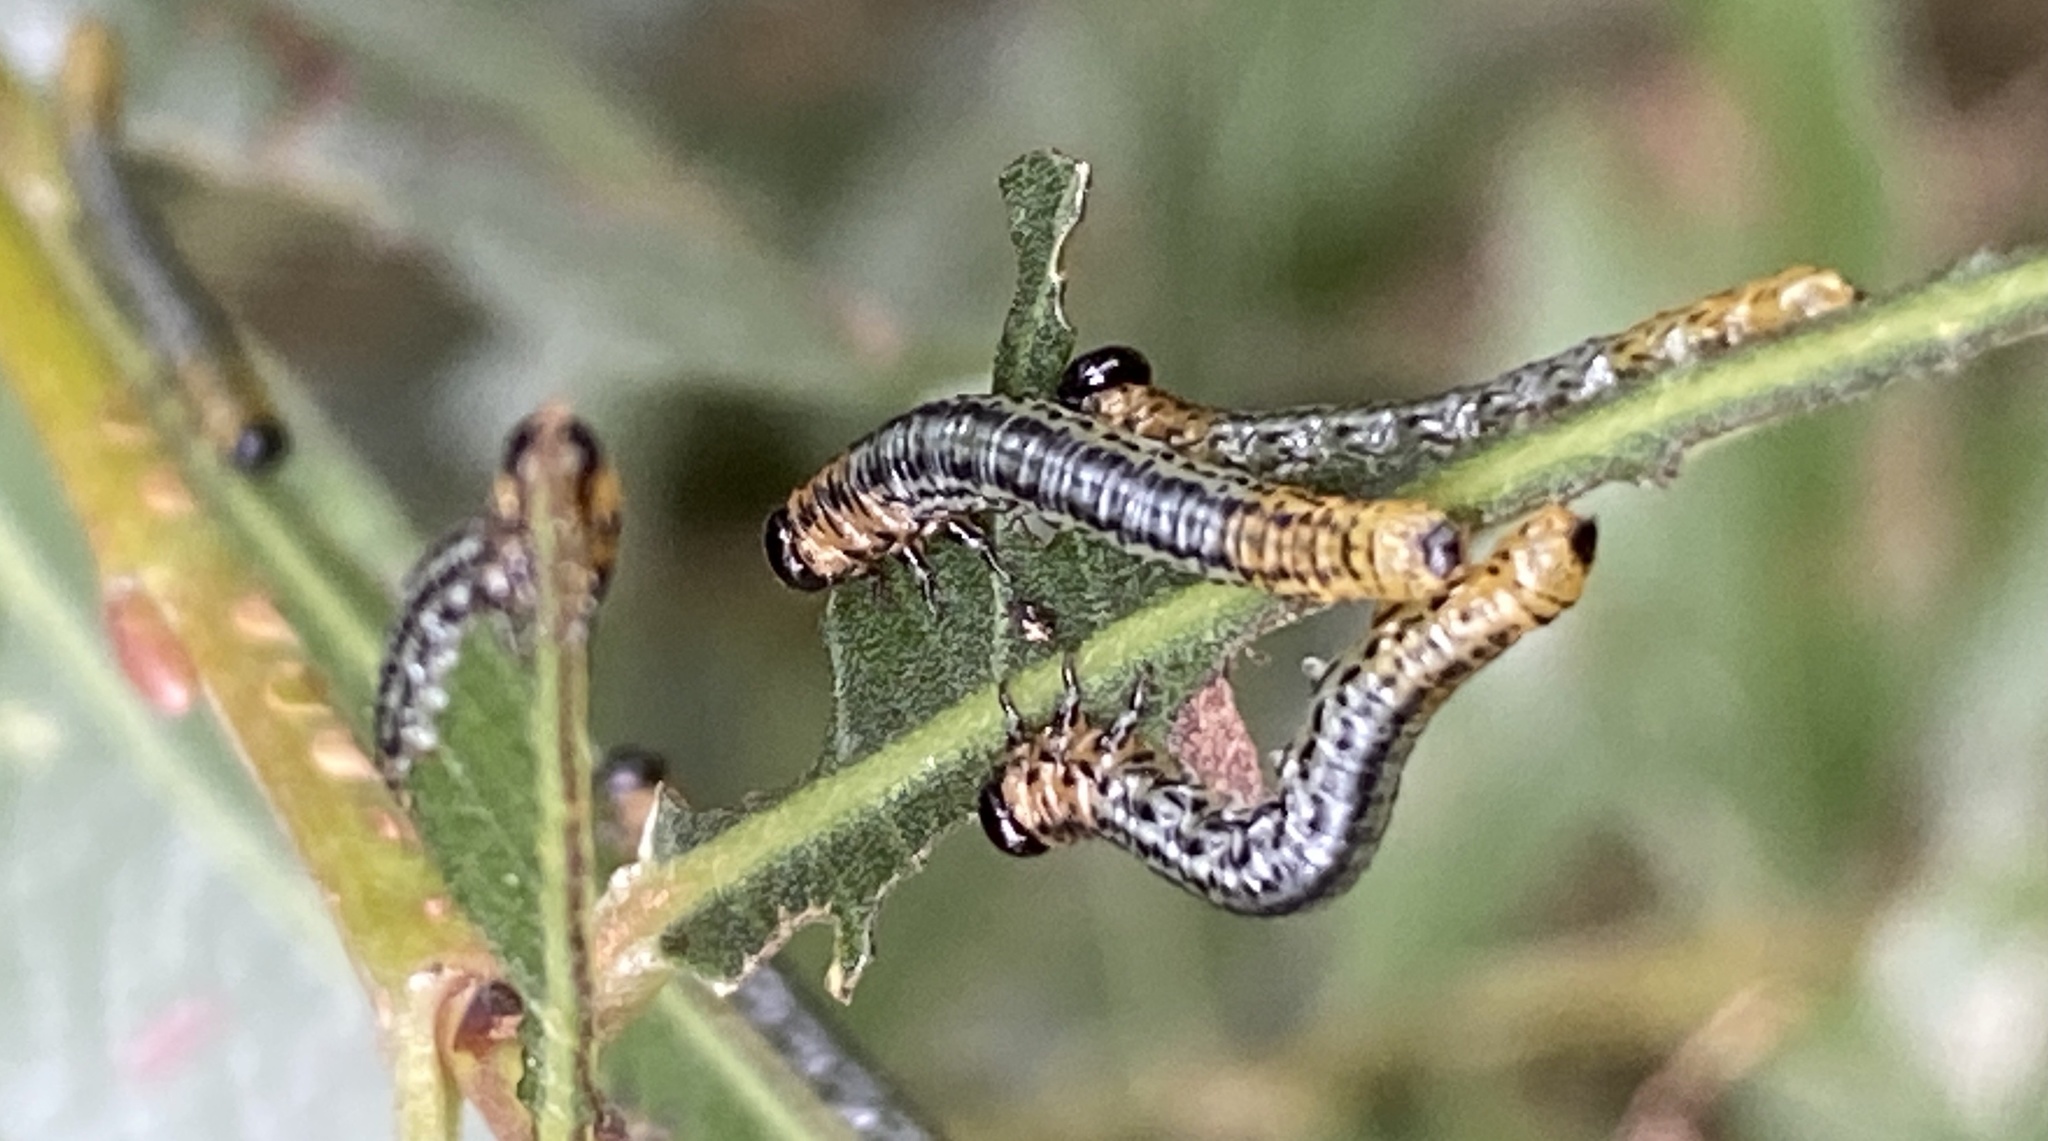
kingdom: Animalia
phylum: Arthropoda
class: Insecta
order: Hymenoptera
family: Tenthredinidae
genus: Nematus
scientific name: Nematus miliaris
